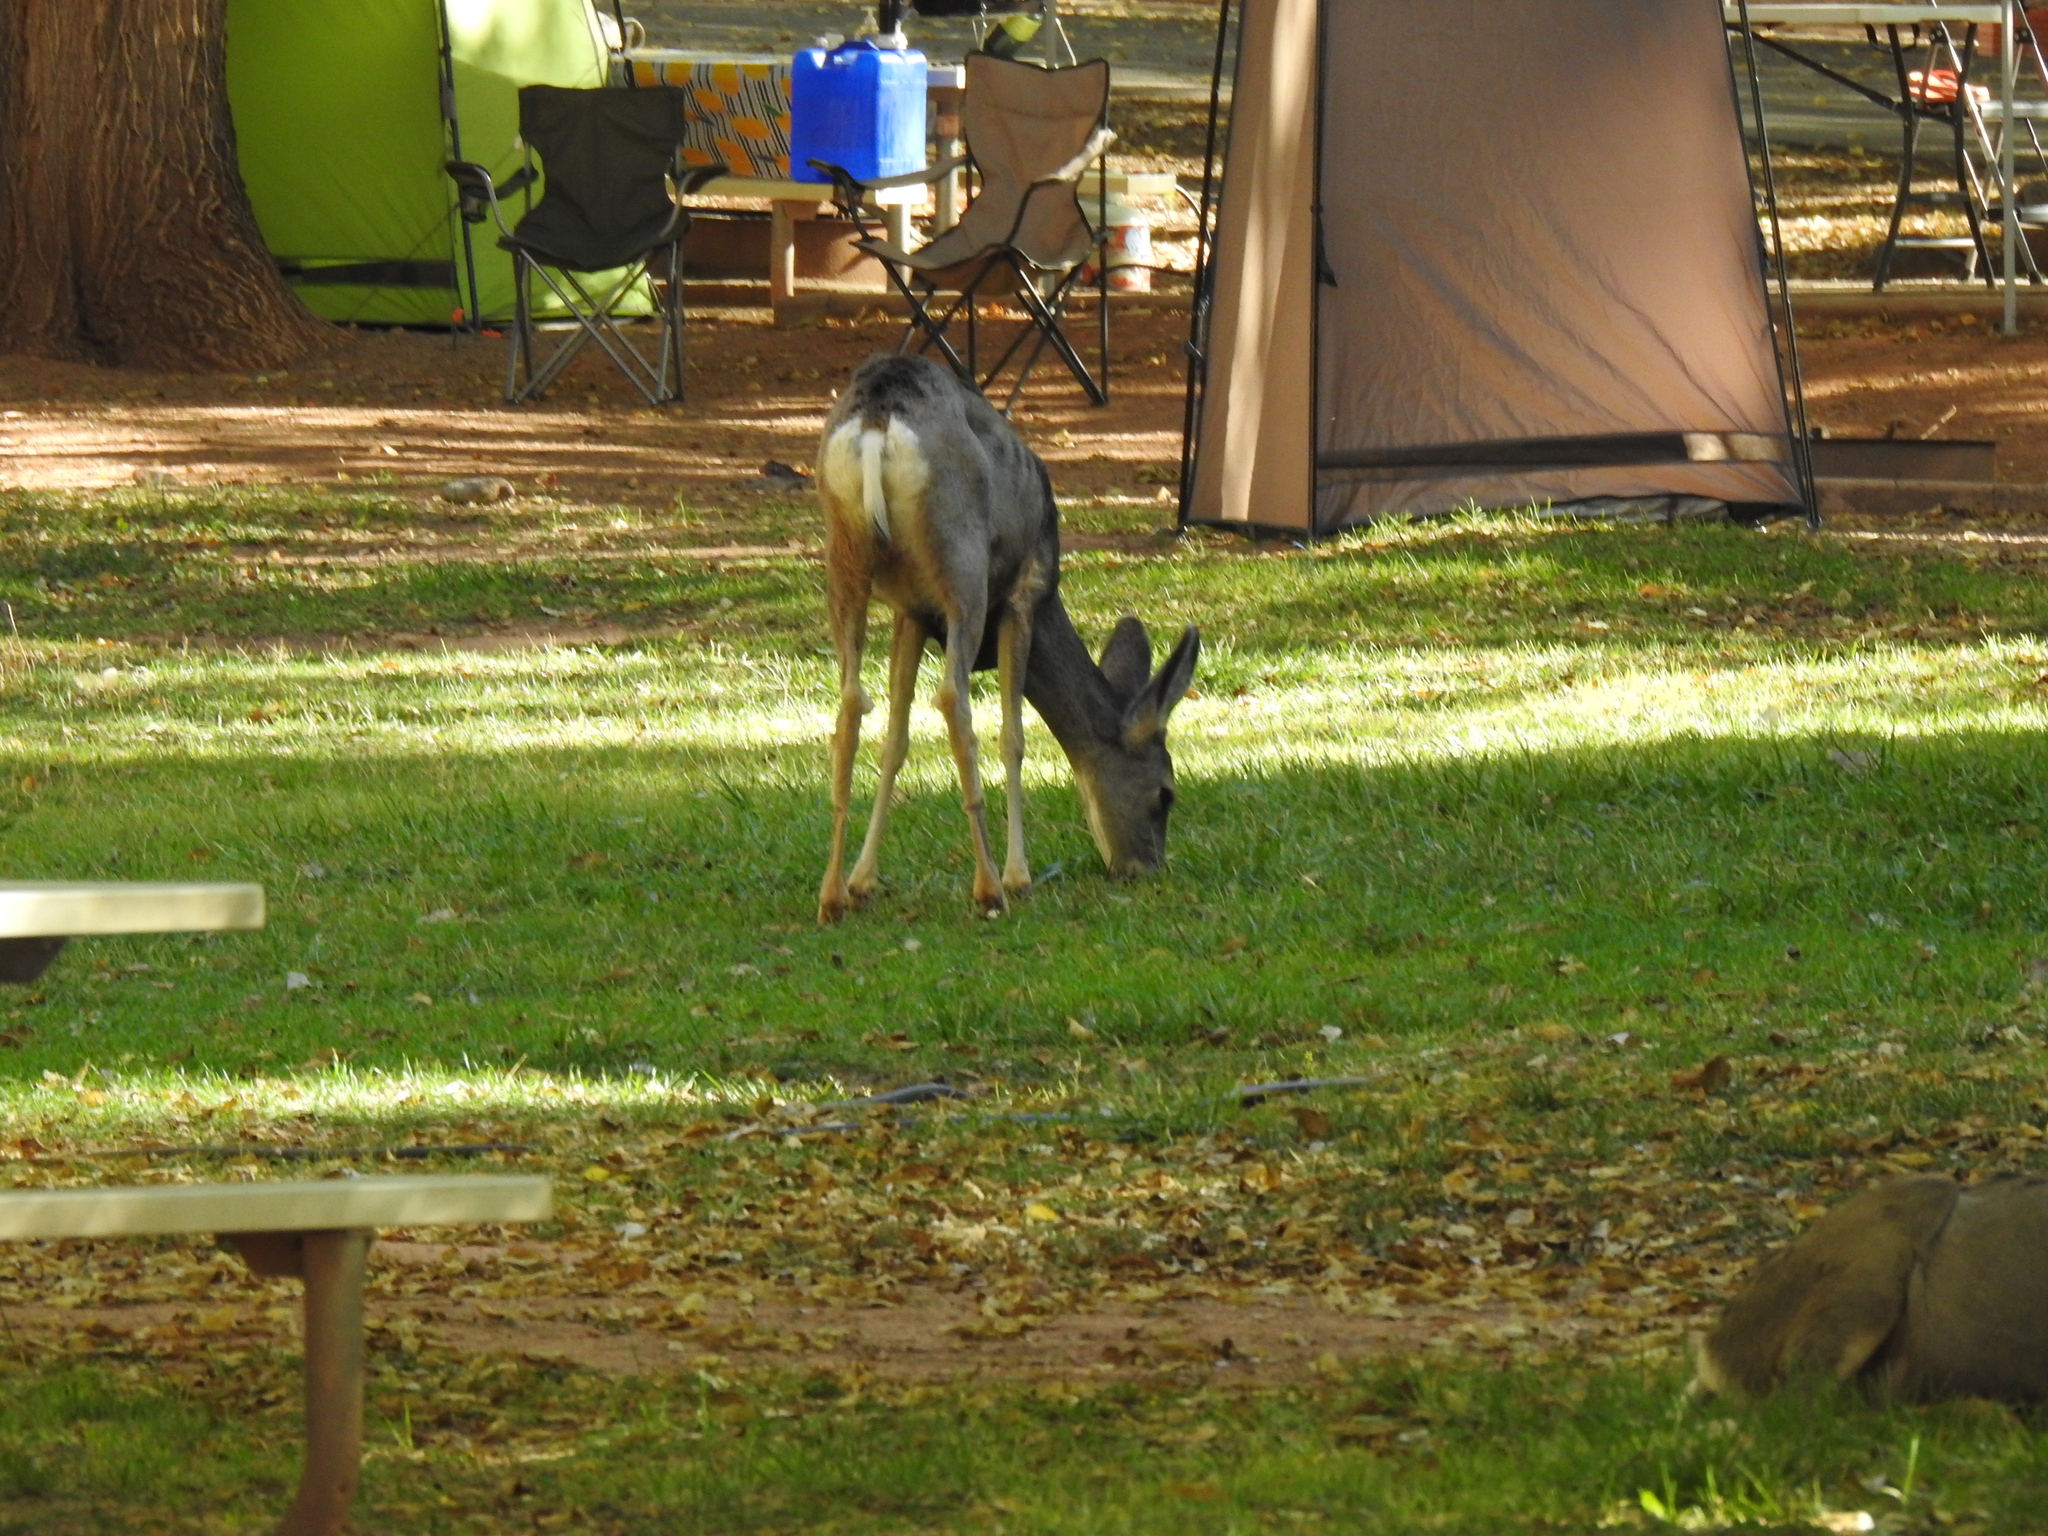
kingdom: Animalia
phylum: Chordata
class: Mammalia
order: Artiodactyla
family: Cervidae
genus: Odocoileus
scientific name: Odocoileus hemionus
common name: Mule deer
